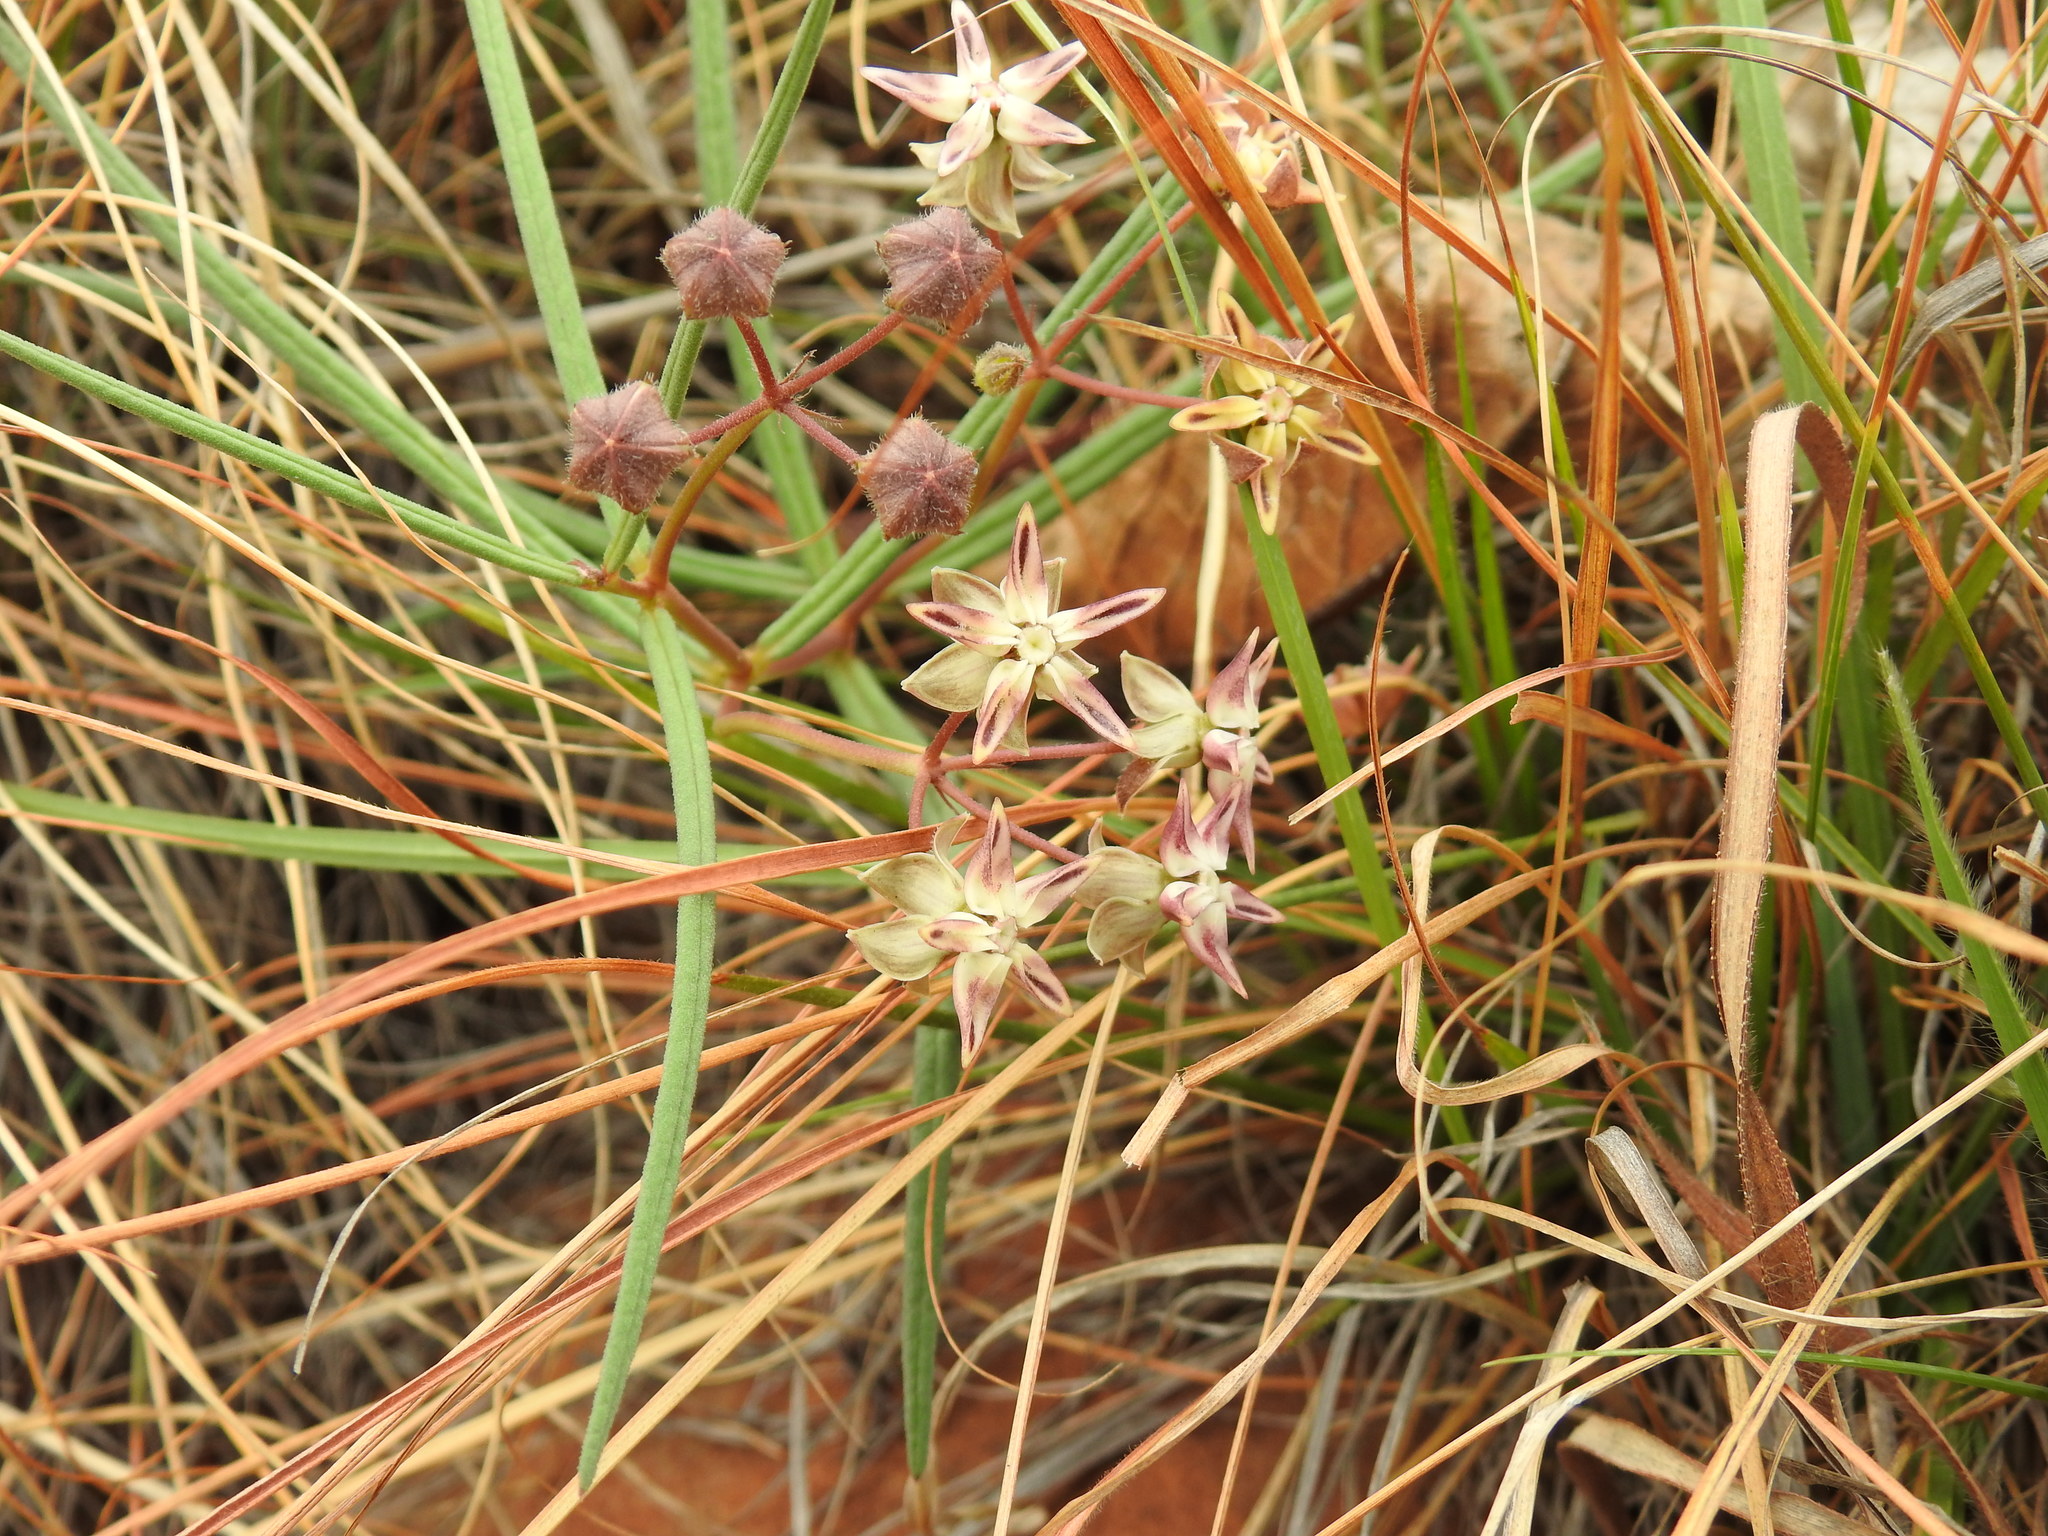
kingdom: Plantae
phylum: Tracheophyta
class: Magnoliopsida
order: Gentianales
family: Apocynaceae
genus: Asclepias
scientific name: Asclepias stellifera
